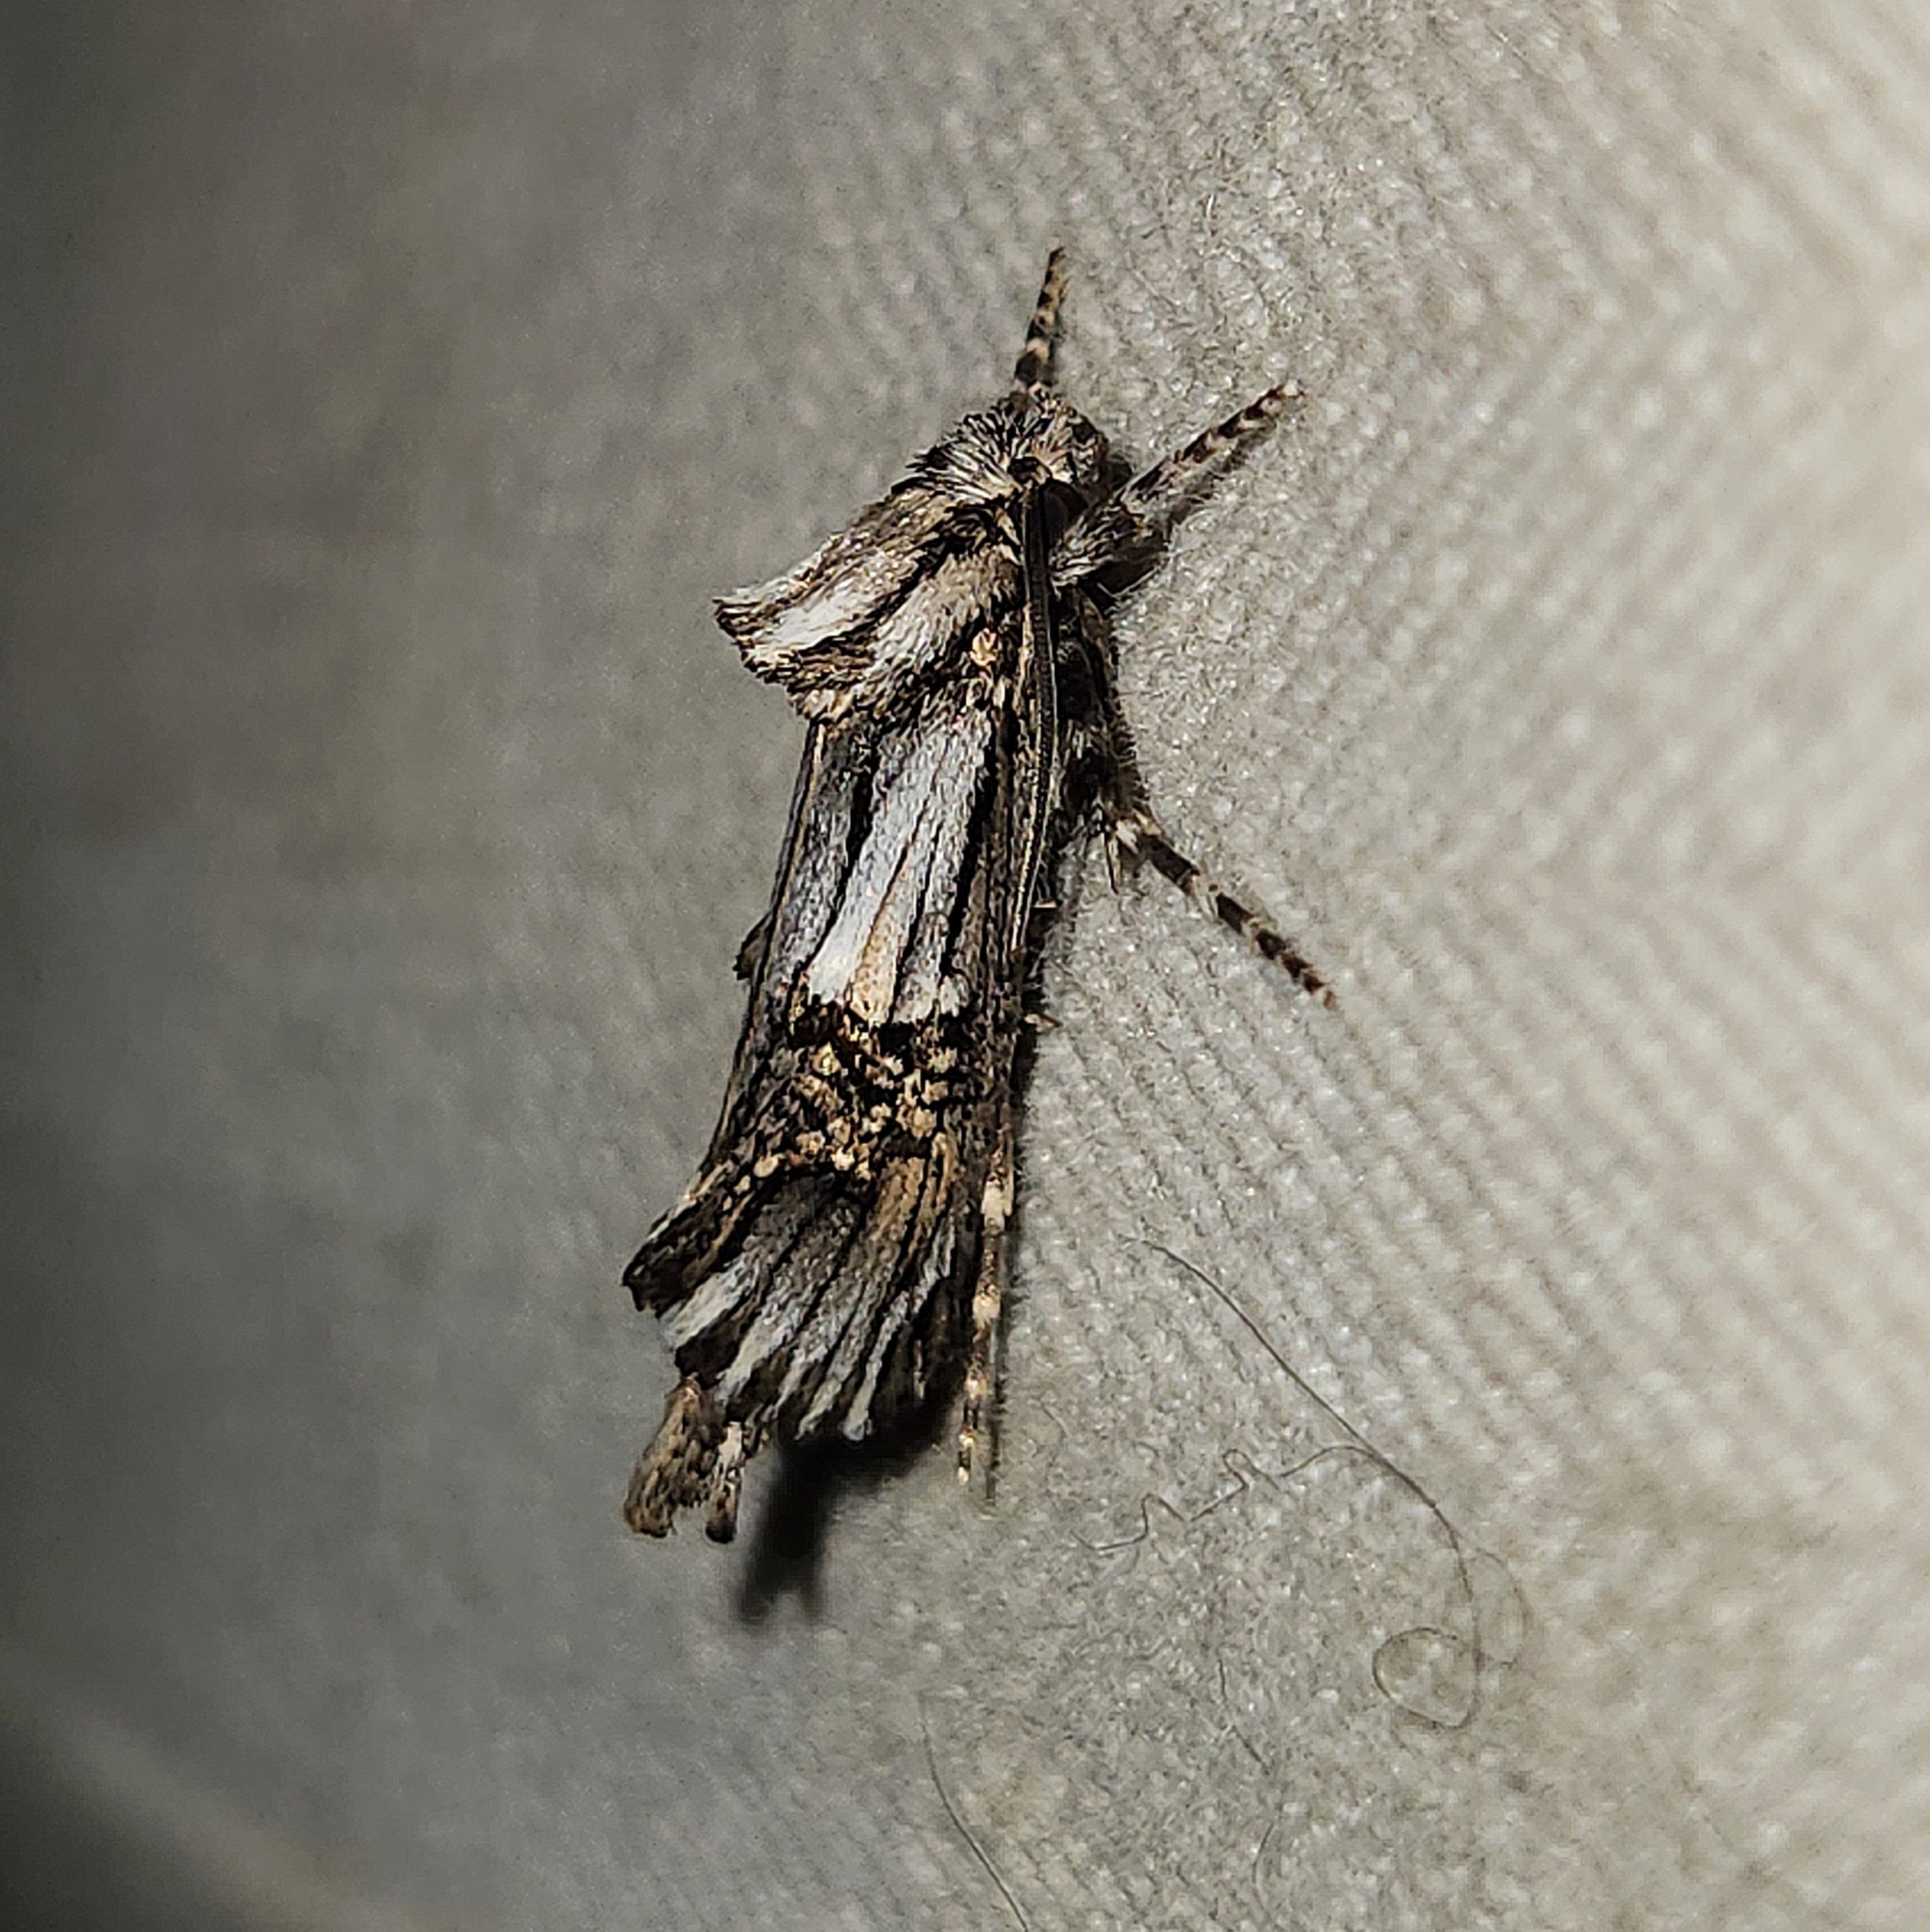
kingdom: Animalia
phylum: Arthropoda
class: Insecta
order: Lepidoptera
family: Cossidae
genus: Archaeoses
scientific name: Archaeoses pentasema
